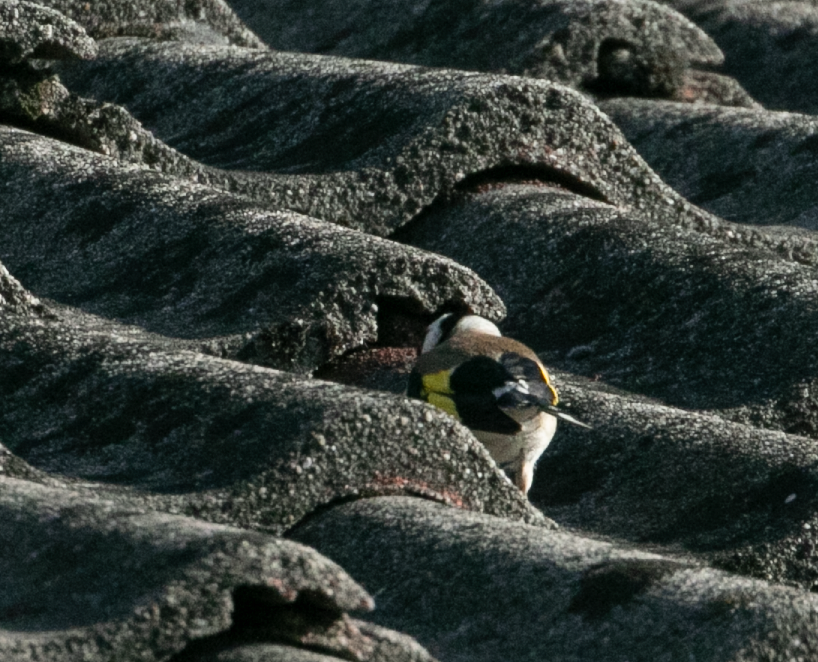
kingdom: Animalia
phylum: Chordata
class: Aves
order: Passeriformes
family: Fringillidae
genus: Carduelis
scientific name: Carduelis carduelis
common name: European goldfinch
